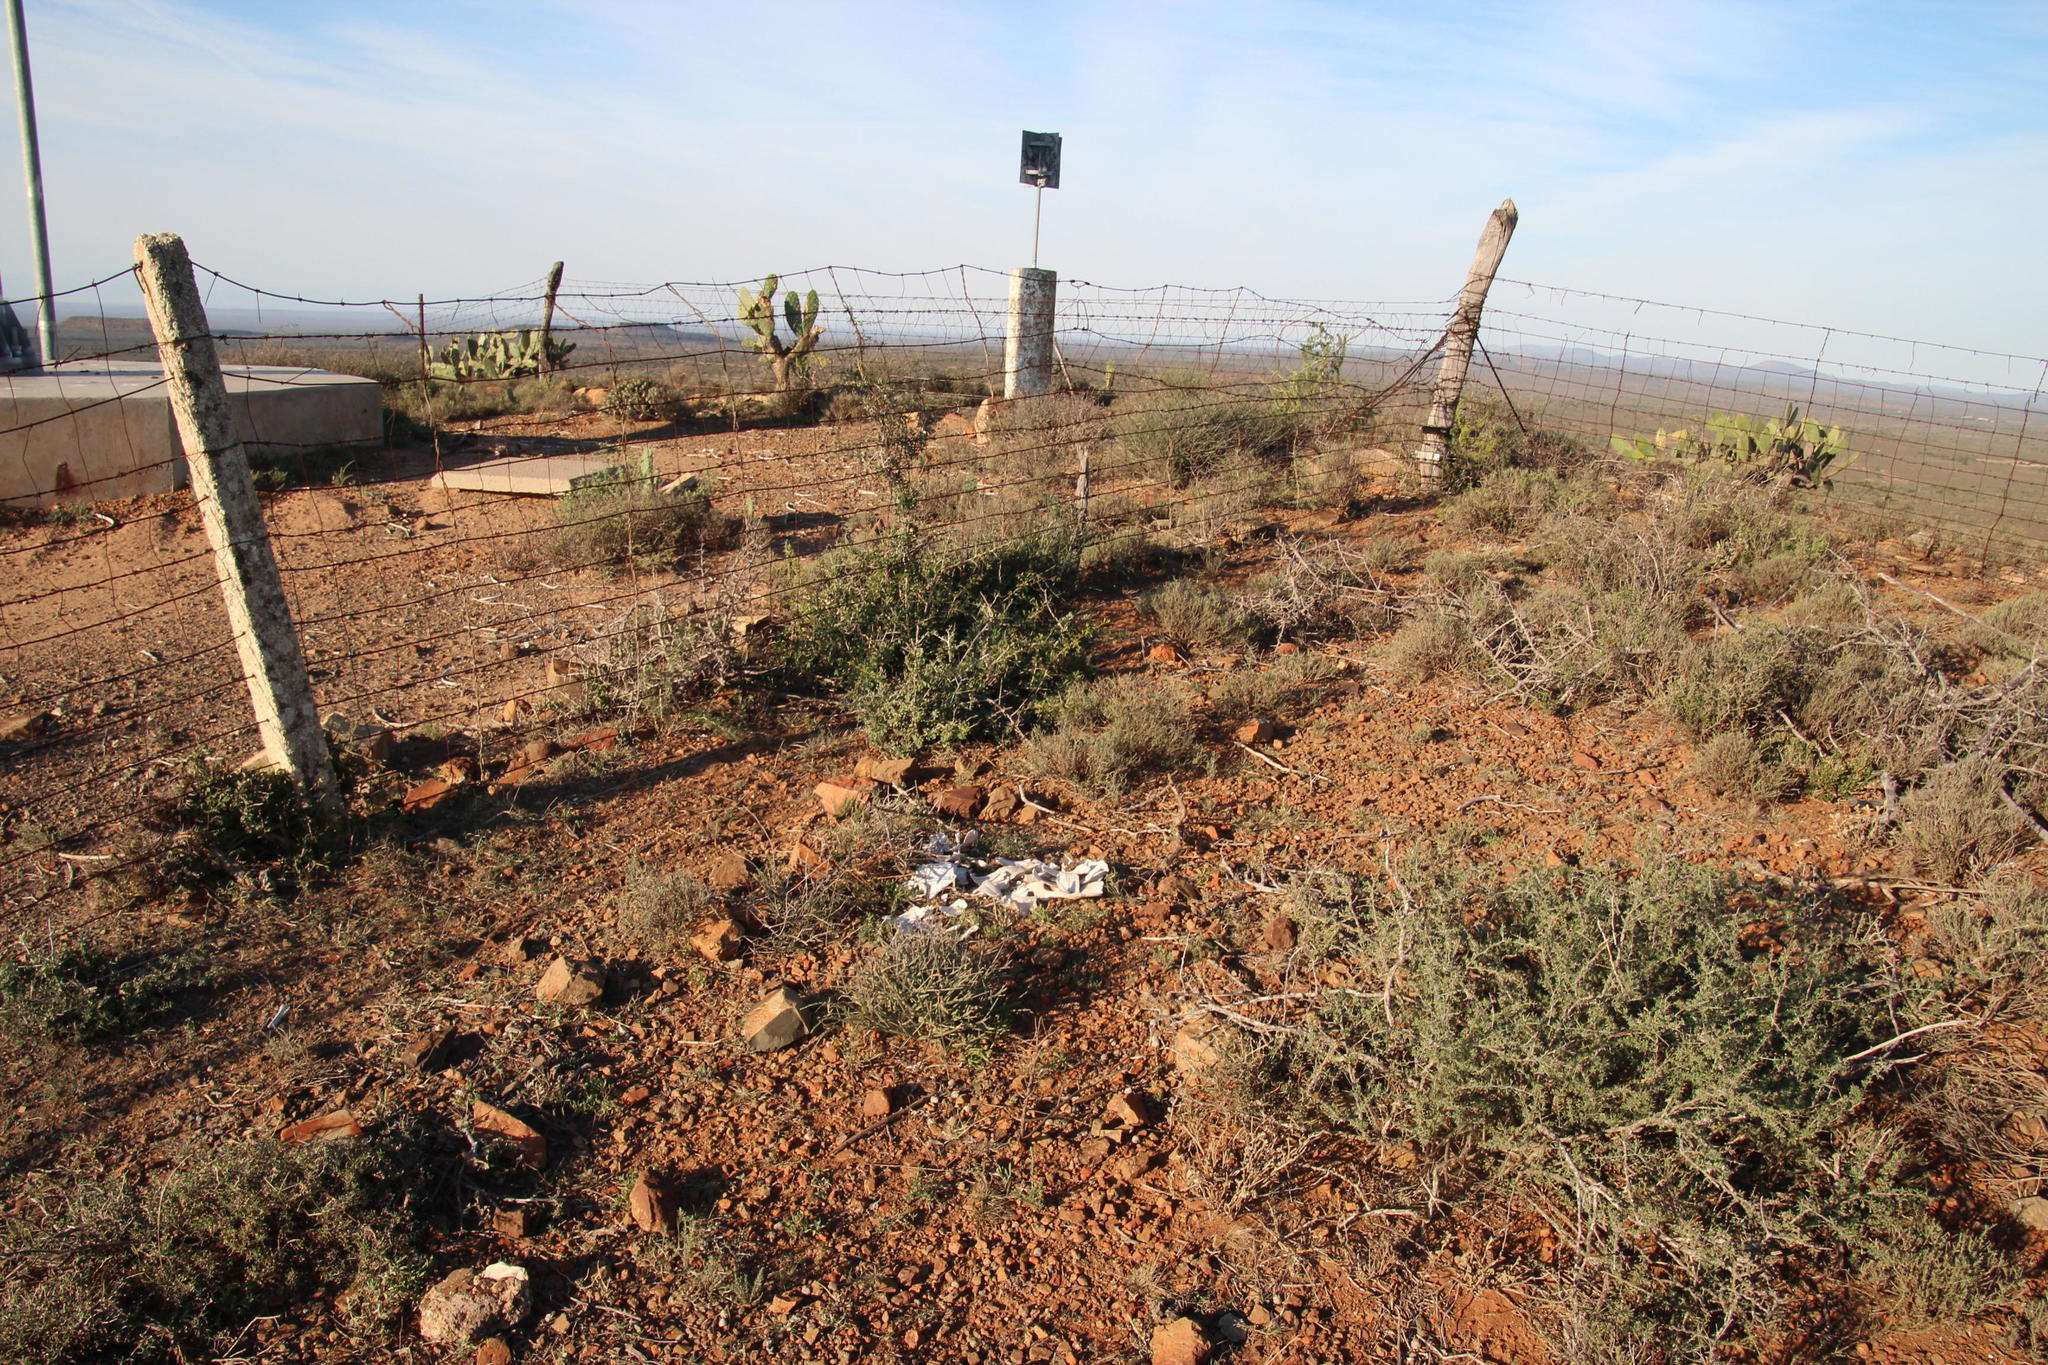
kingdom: Animalia
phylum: Chordata
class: Testudines
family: Testudinidae
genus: Stigmochelys
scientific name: Stigmochelys pardalis
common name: Leopard tortoise
